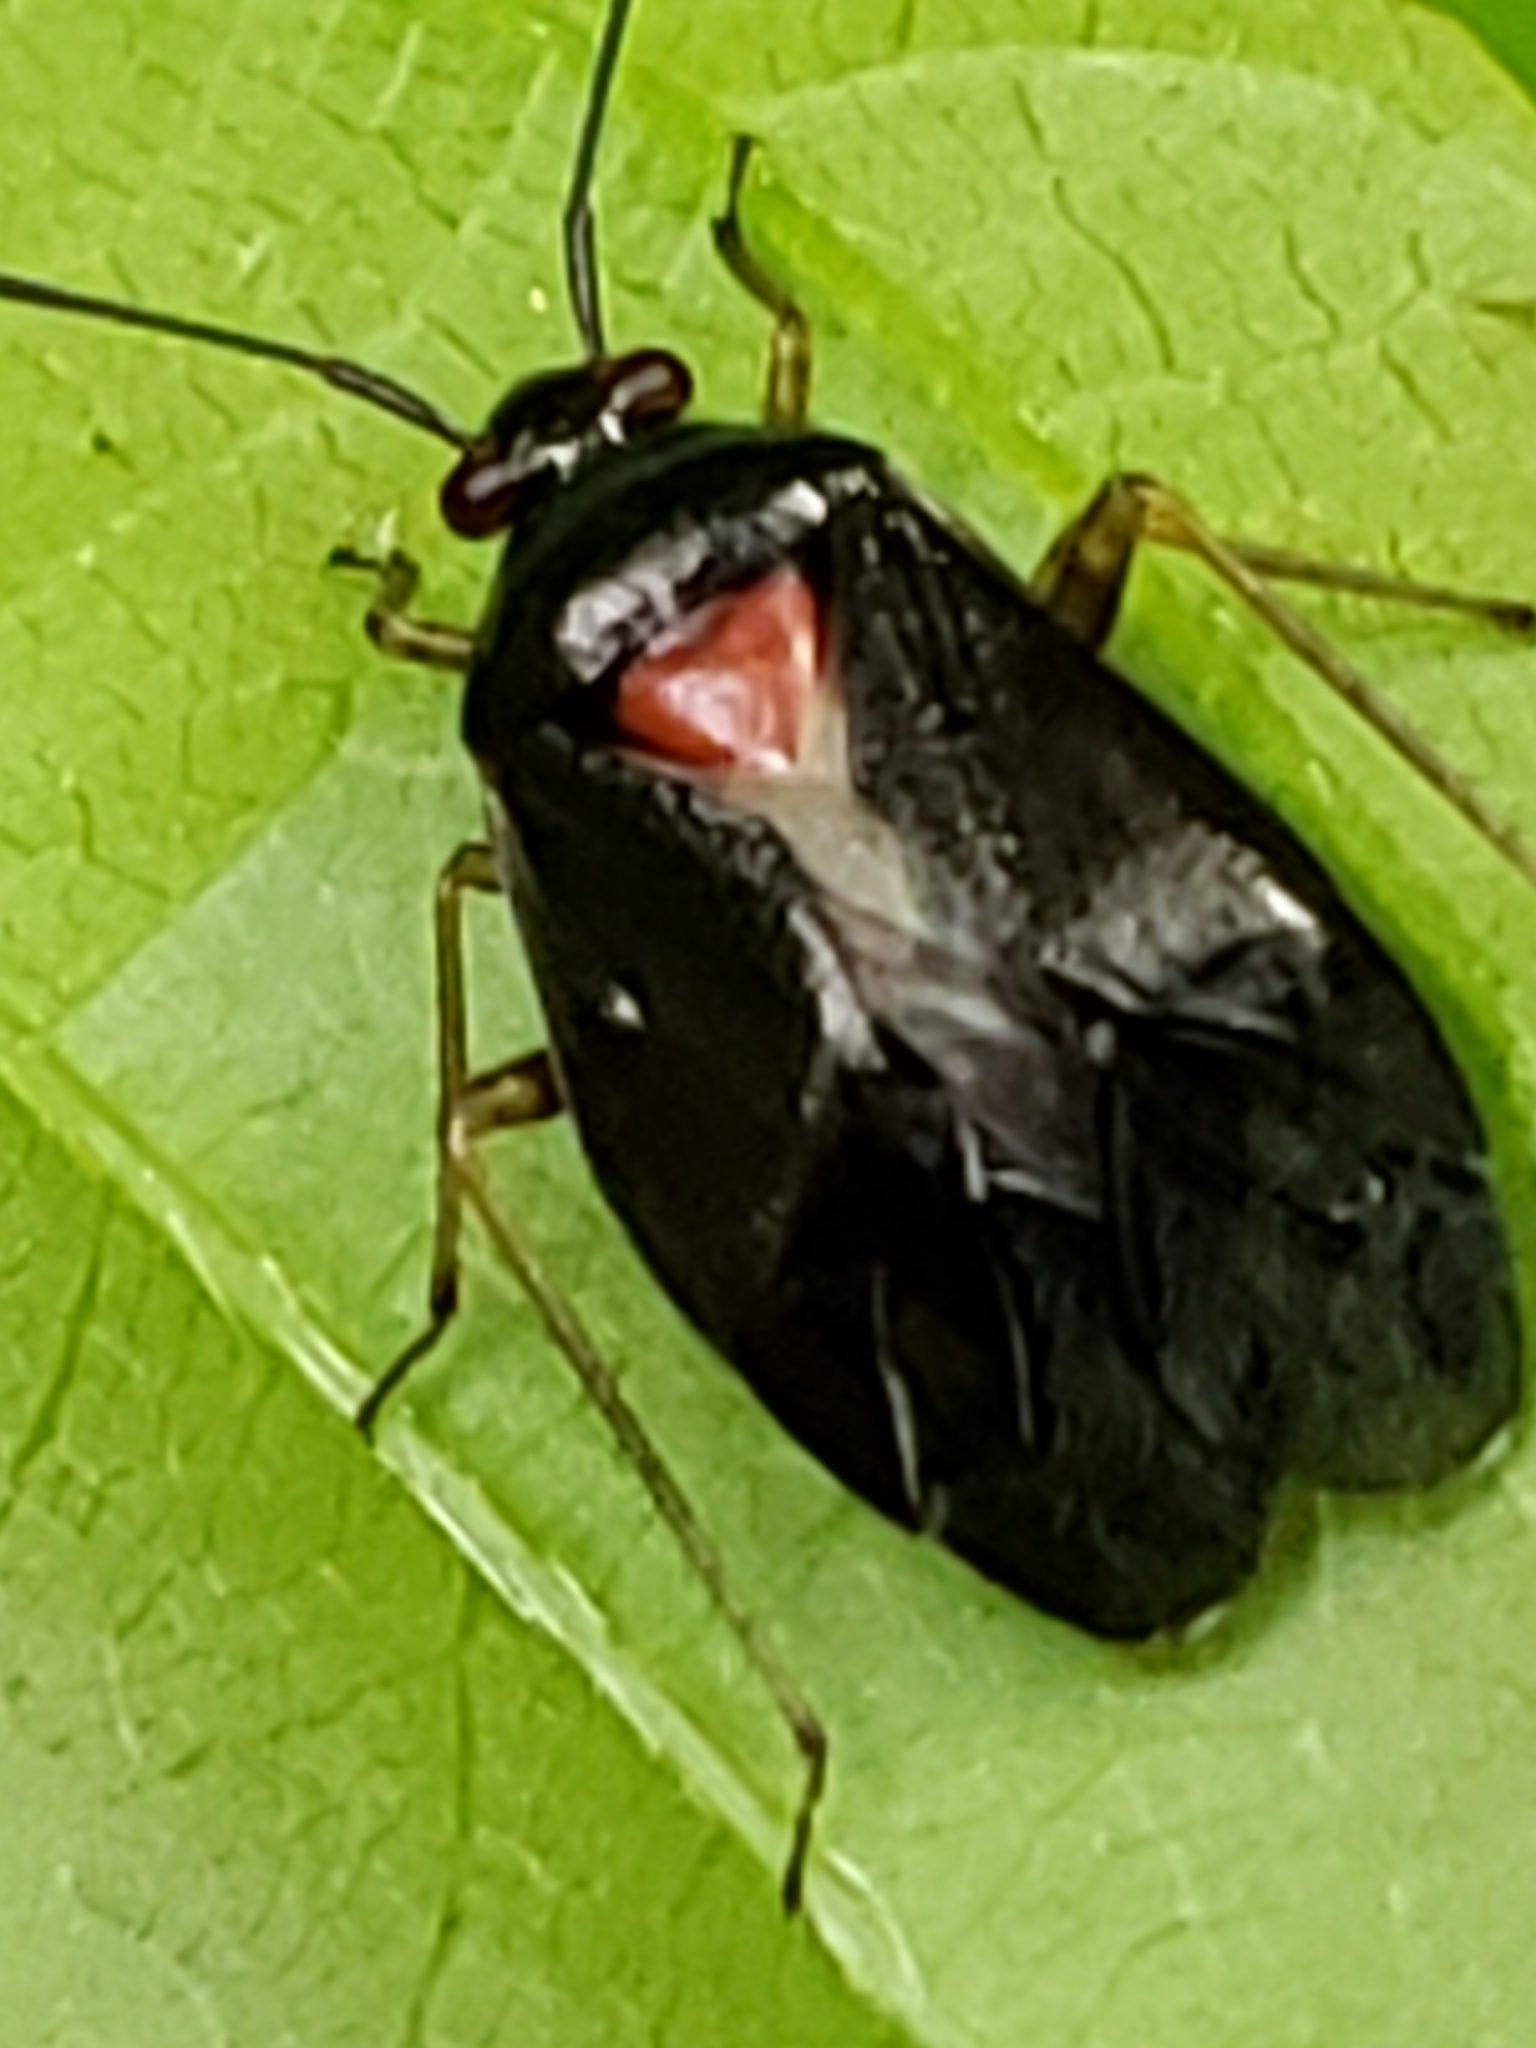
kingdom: Animalia
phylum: Arthropoda
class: Insecta
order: Hemiptera
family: Miridae
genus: Deraeocoris
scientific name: Deraeocoris sayi
